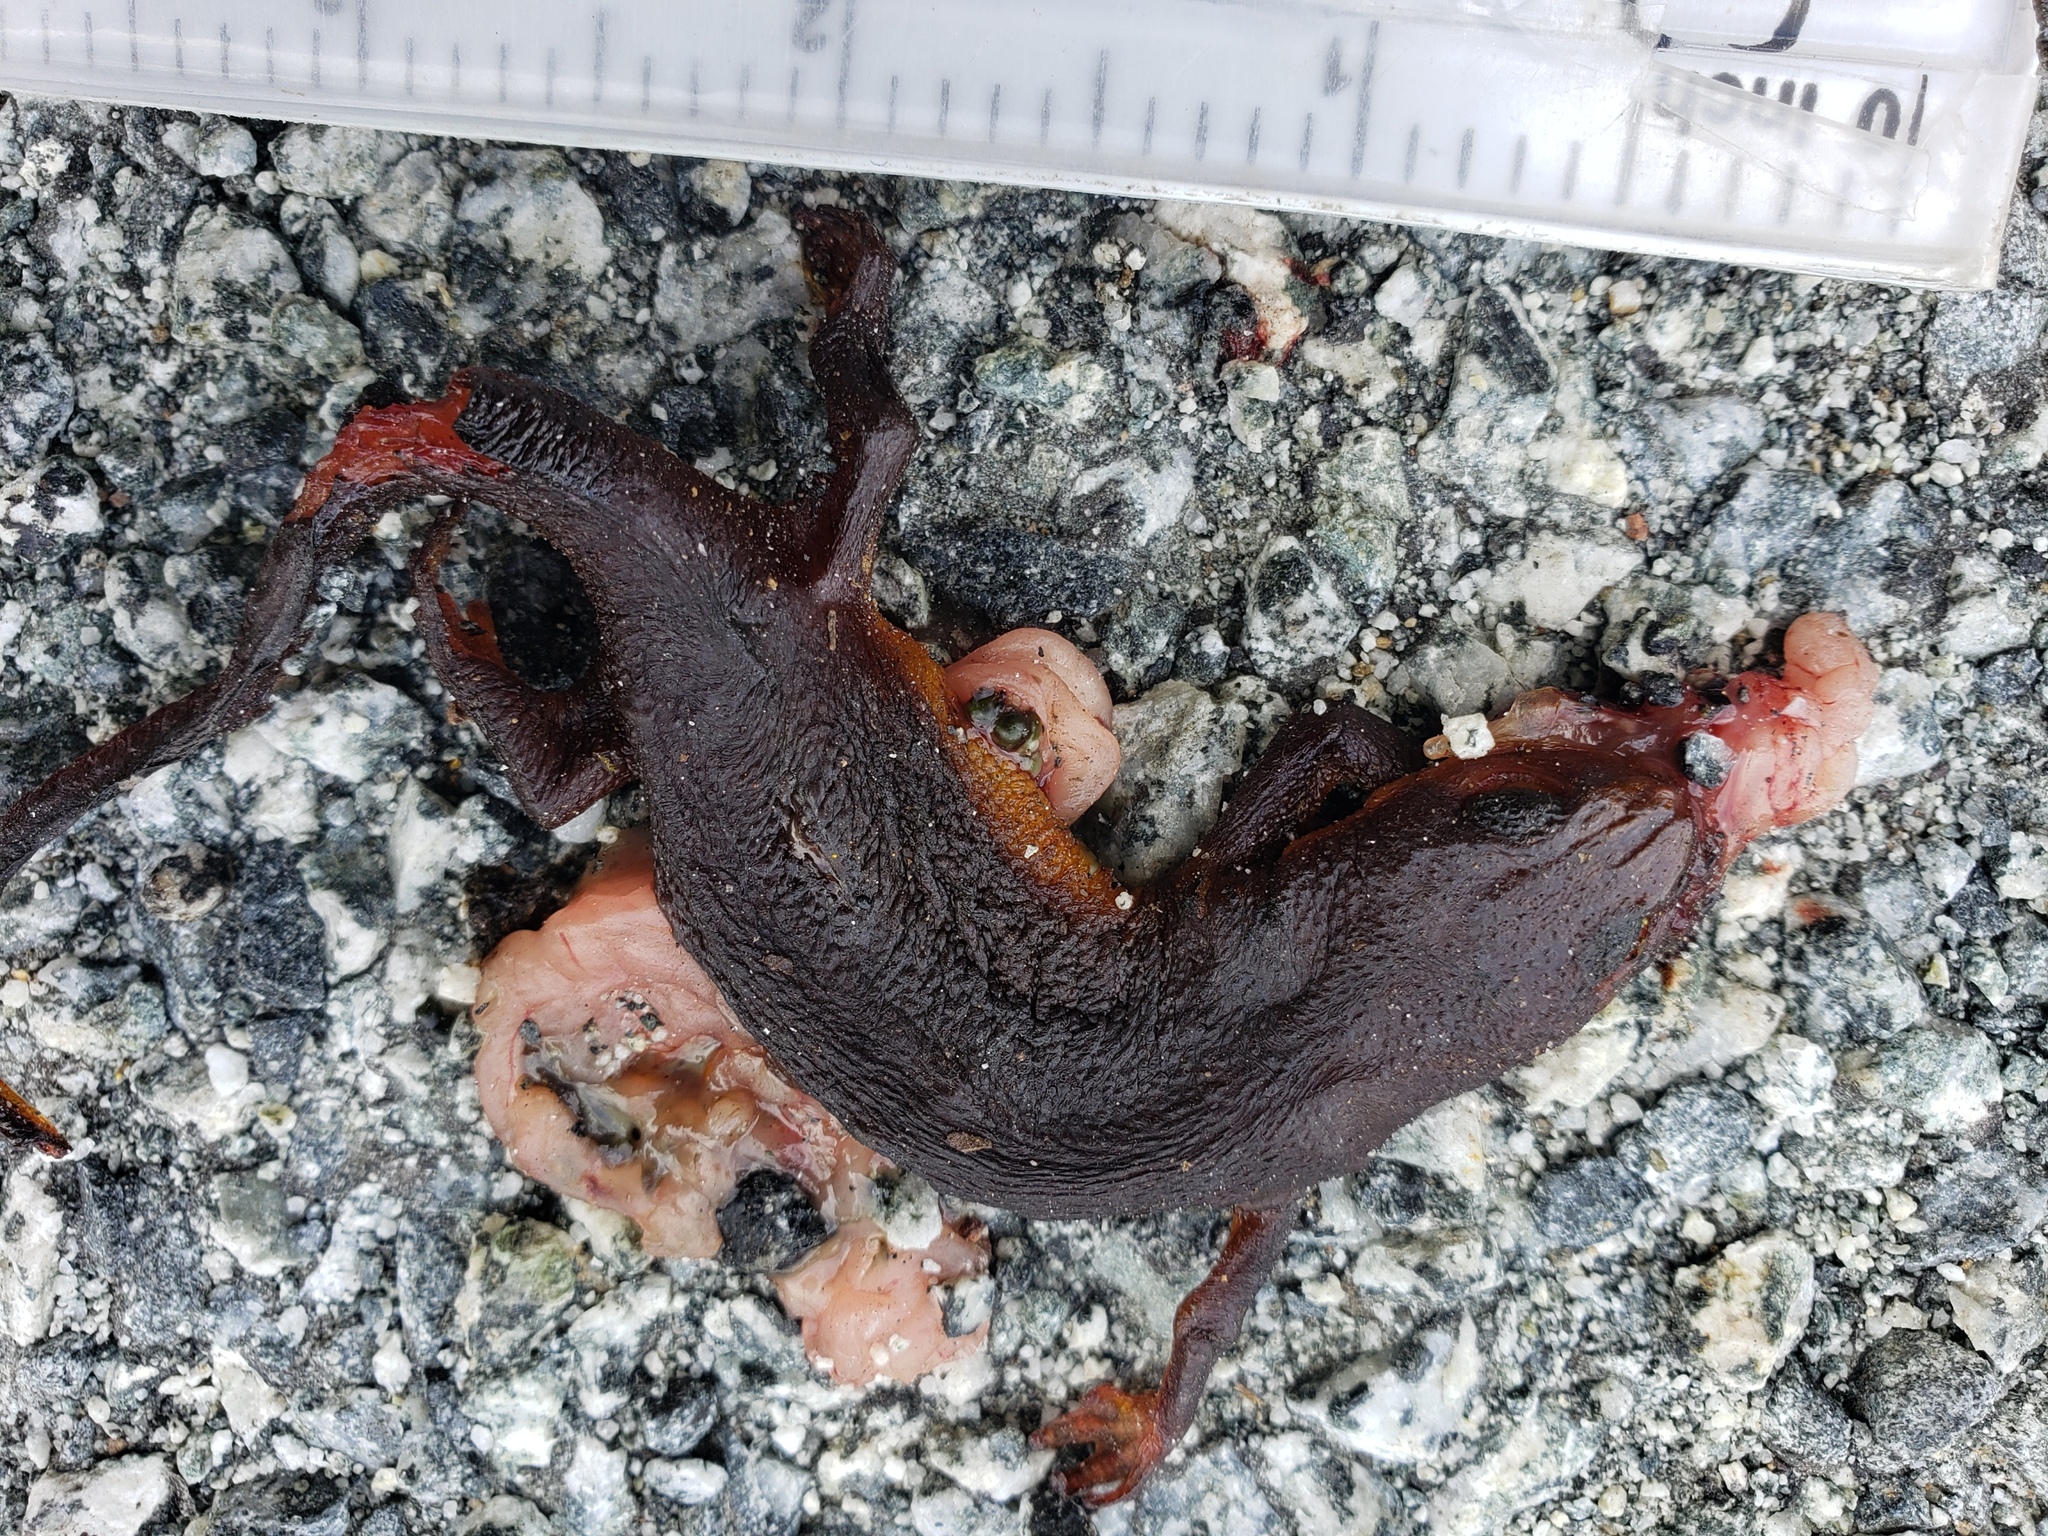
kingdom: Animalia
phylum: Chordata
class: Amphibia
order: Caudata
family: Salamandridae
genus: Taricha
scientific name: Taricha
